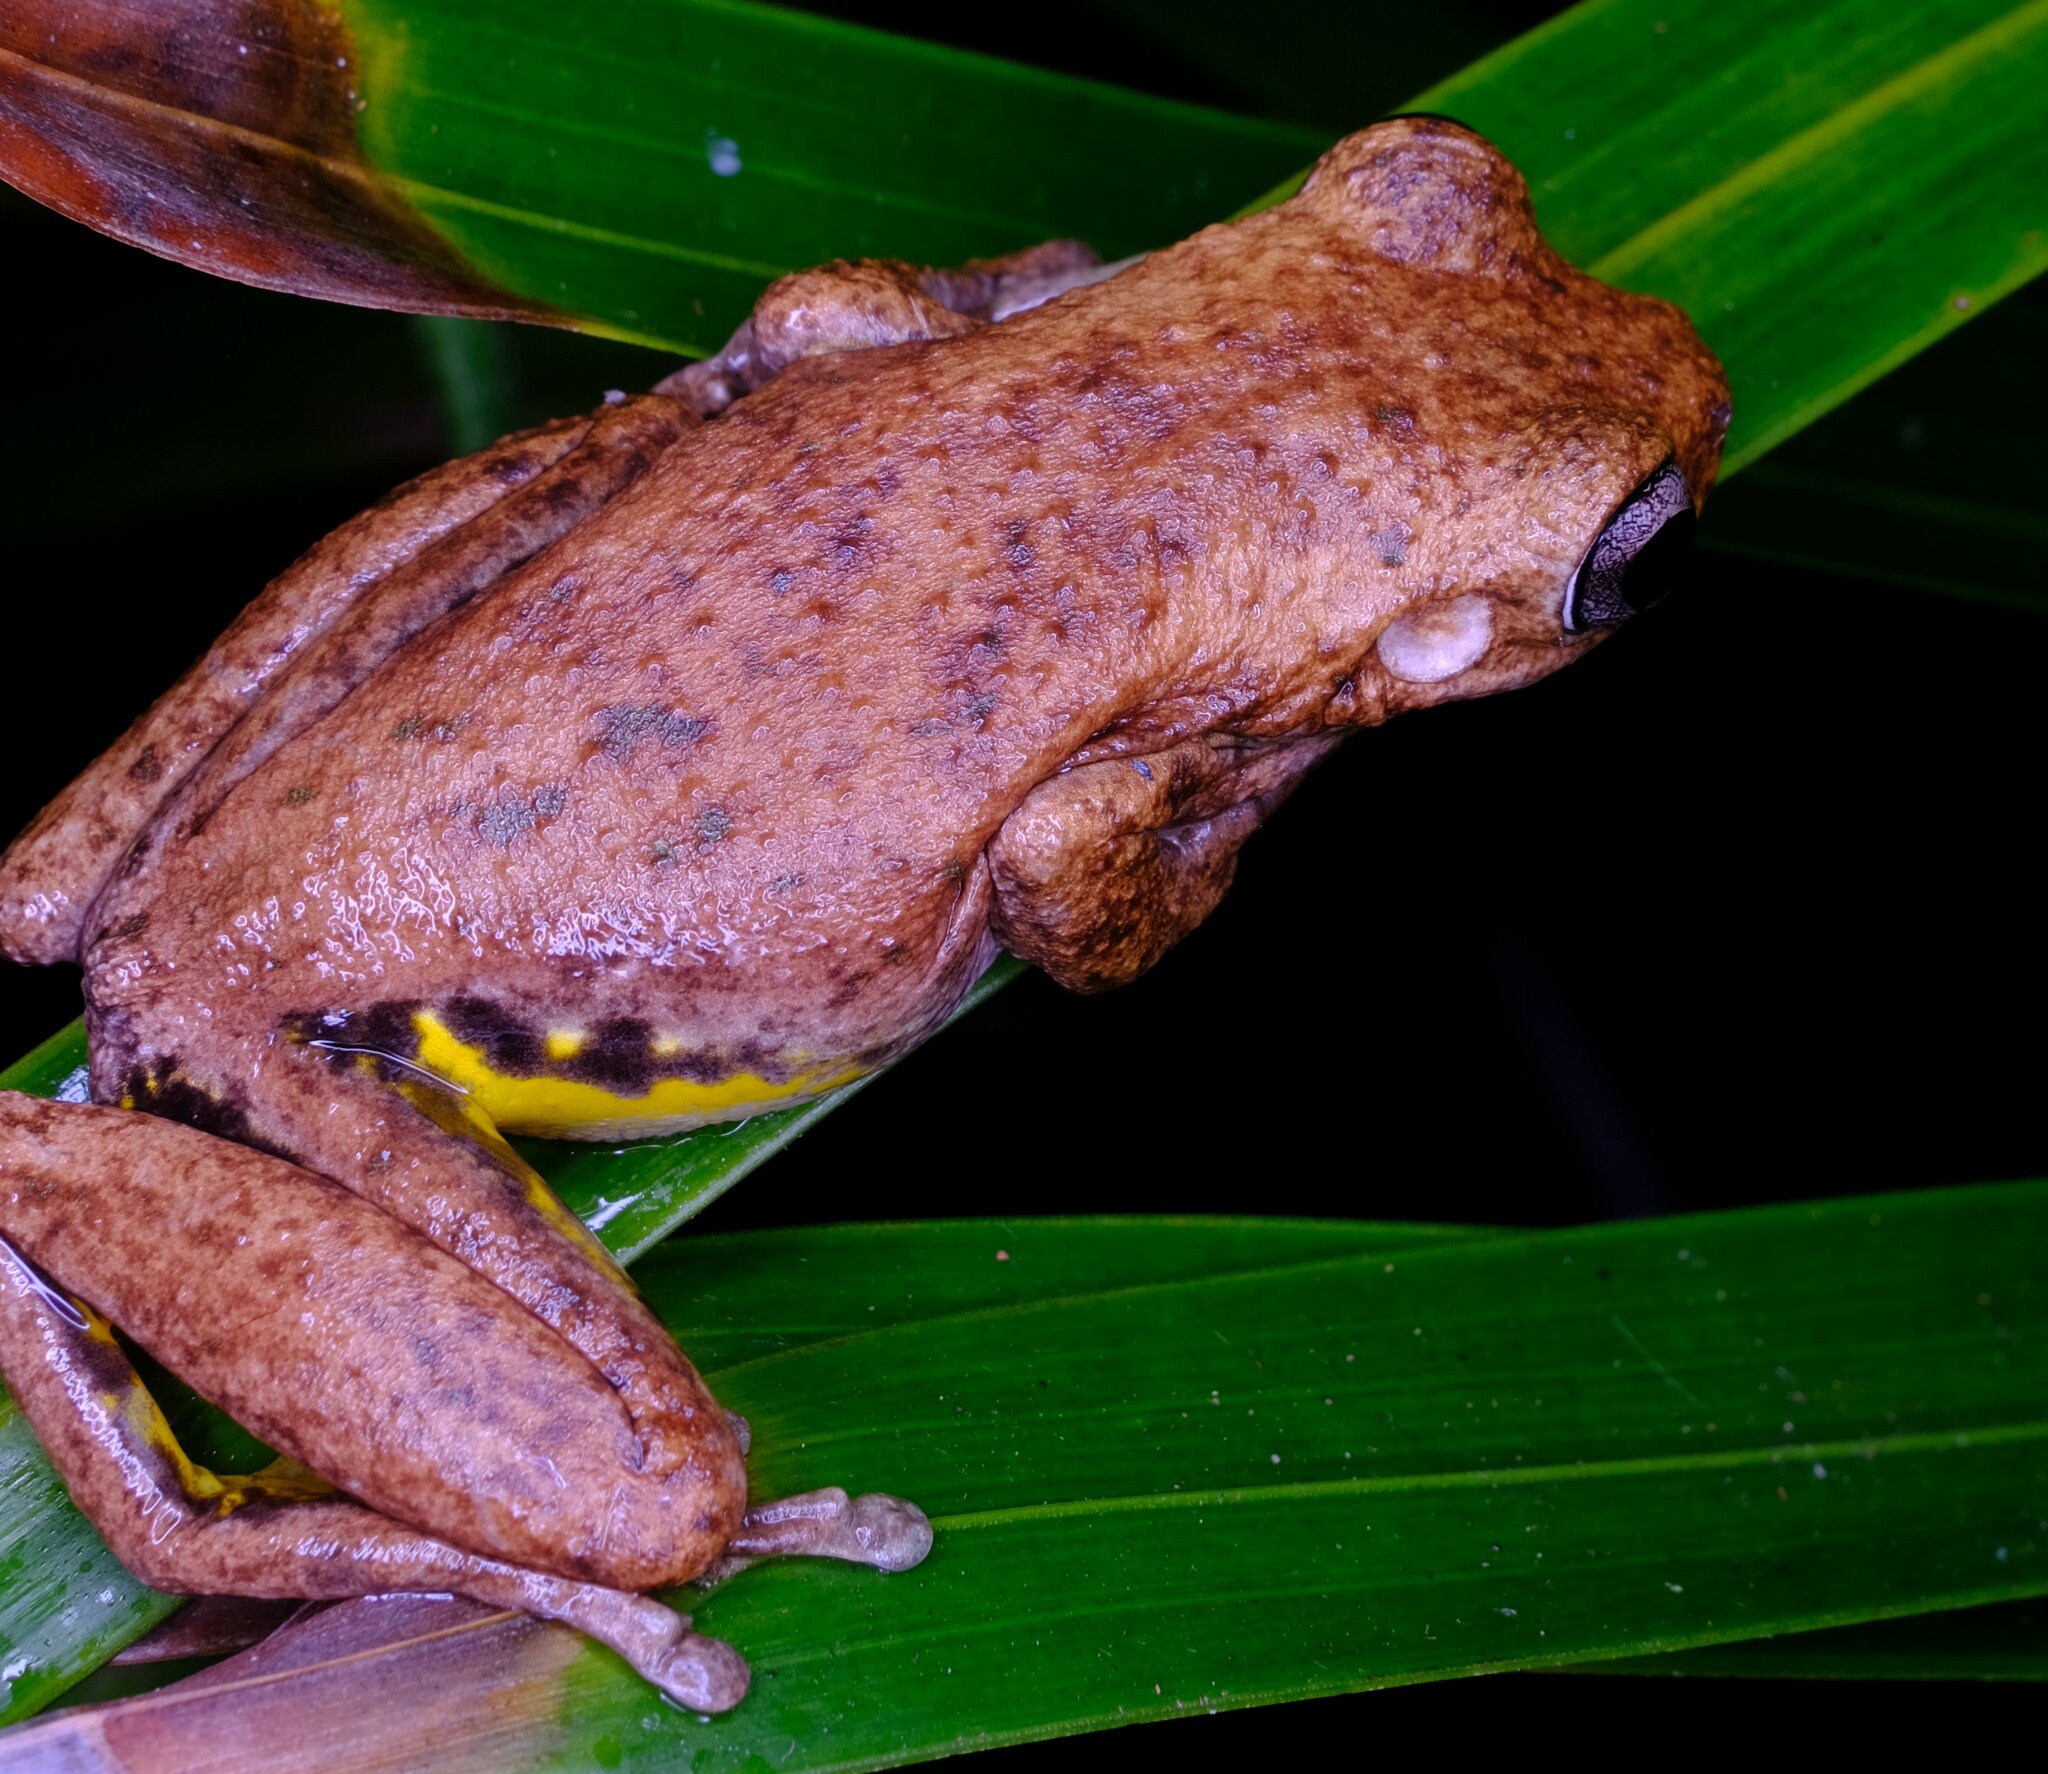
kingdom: Animalia
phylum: Chordata
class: Amphibia
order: Anura
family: Pelodryadidae
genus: Litoria
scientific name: Litoria tyleri
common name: Laughing tree frog
